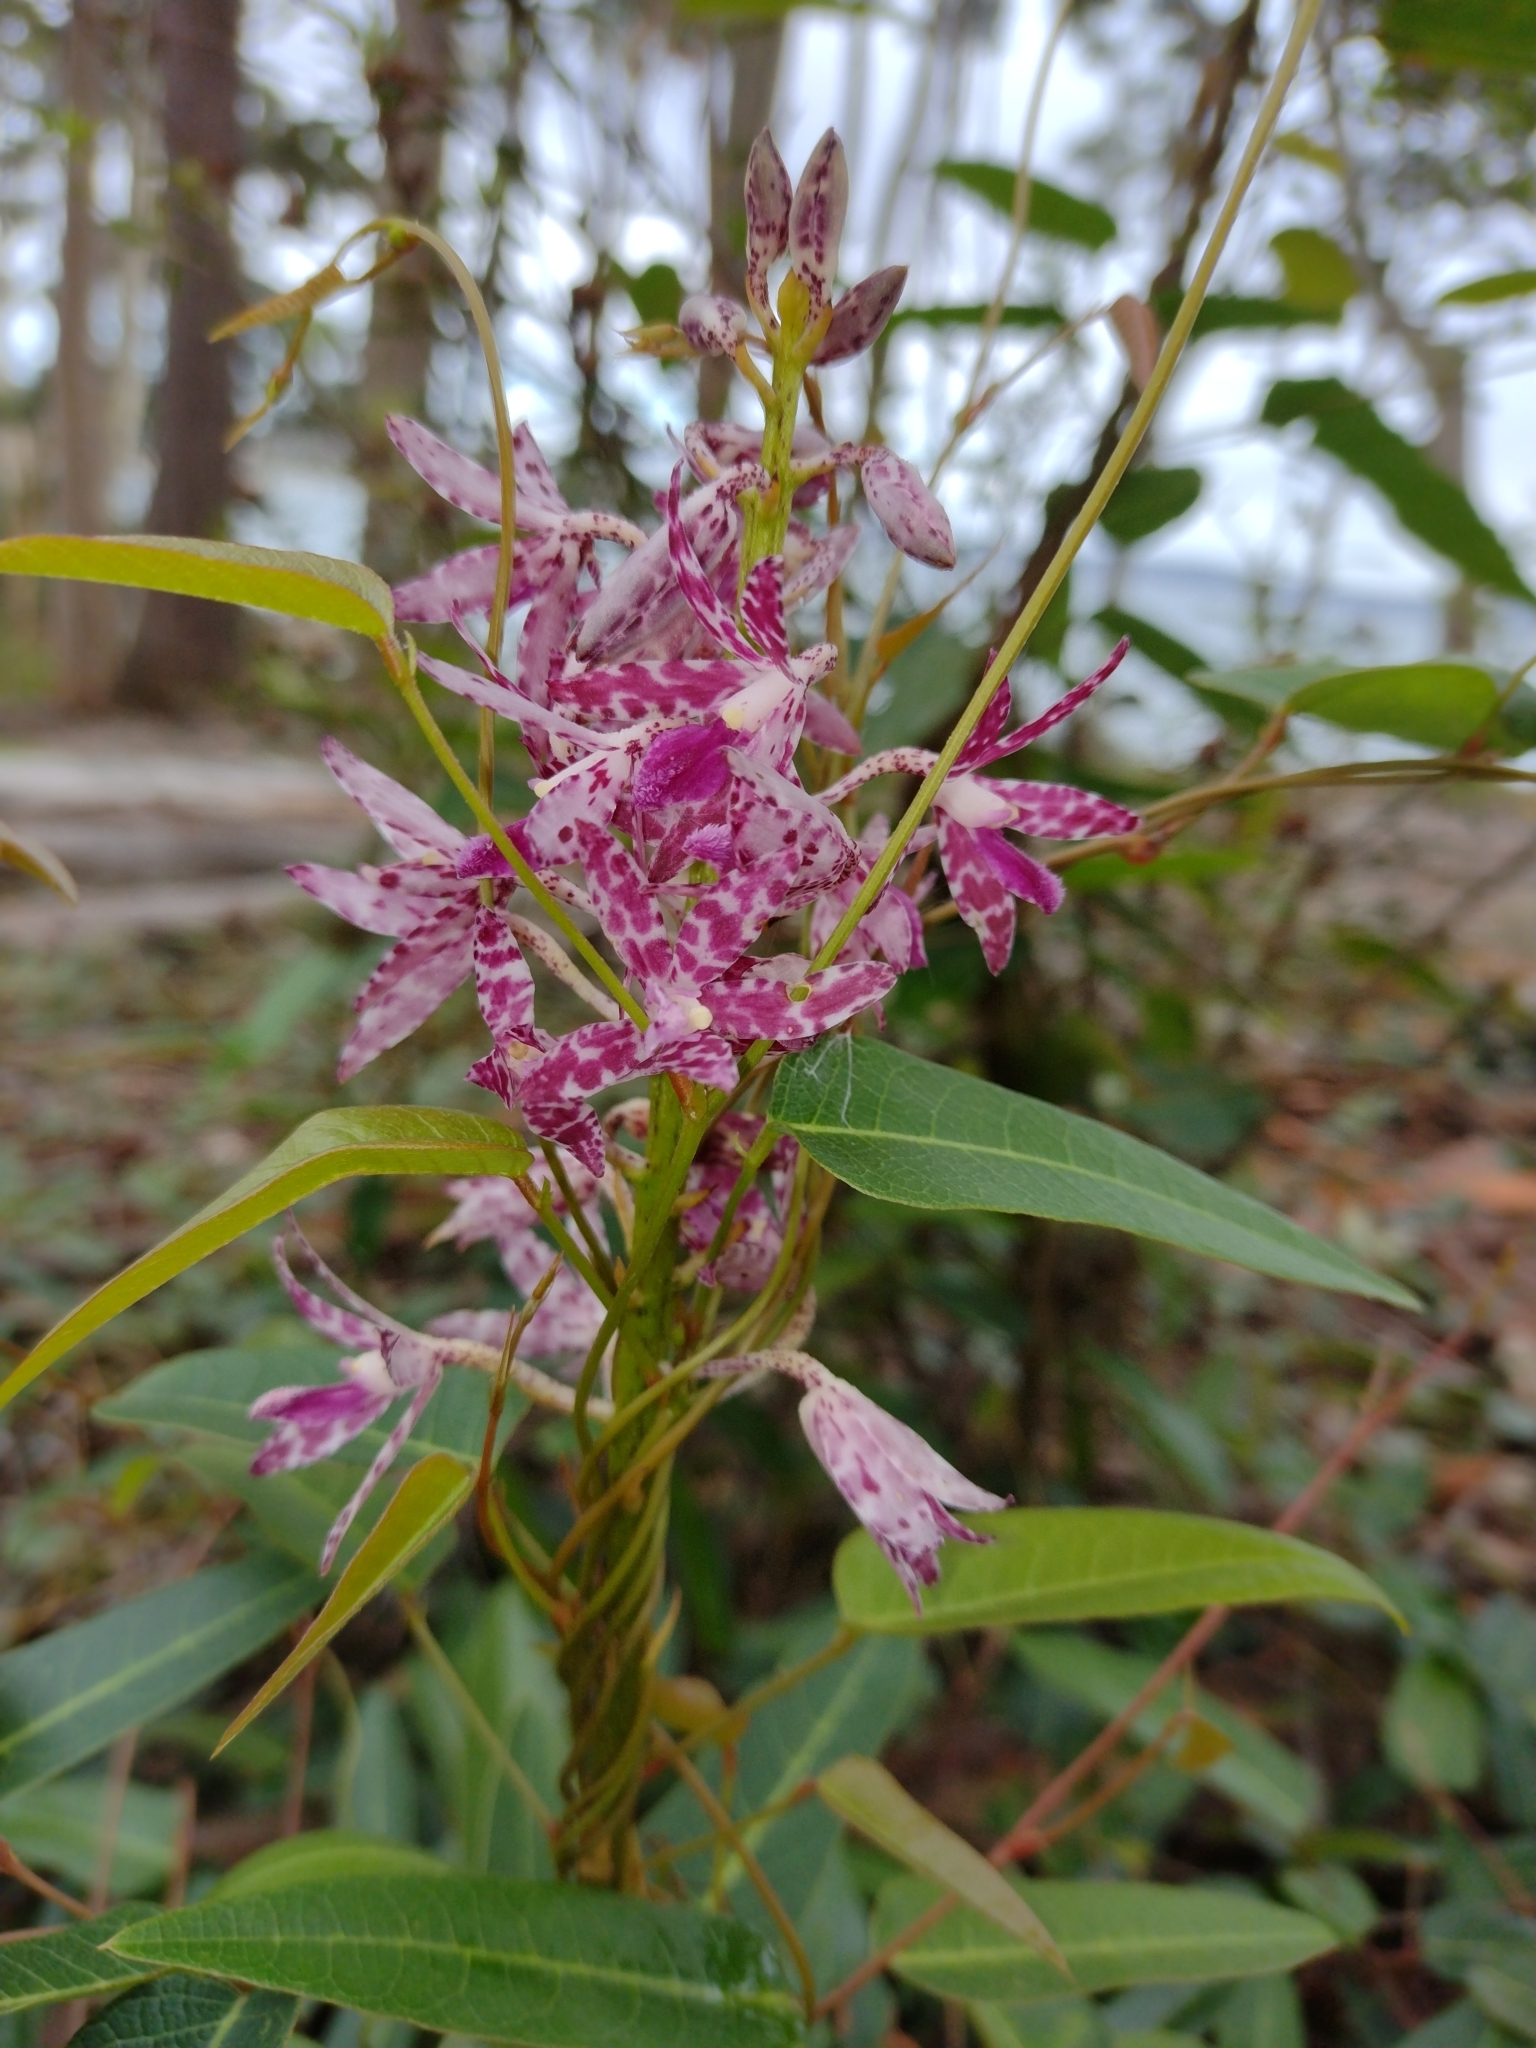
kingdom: Plantae
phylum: Tracheophyta
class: Liliopsida
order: Asparagales
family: Orchidaceae
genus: Dipodium
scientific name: Dipodium variegatum
